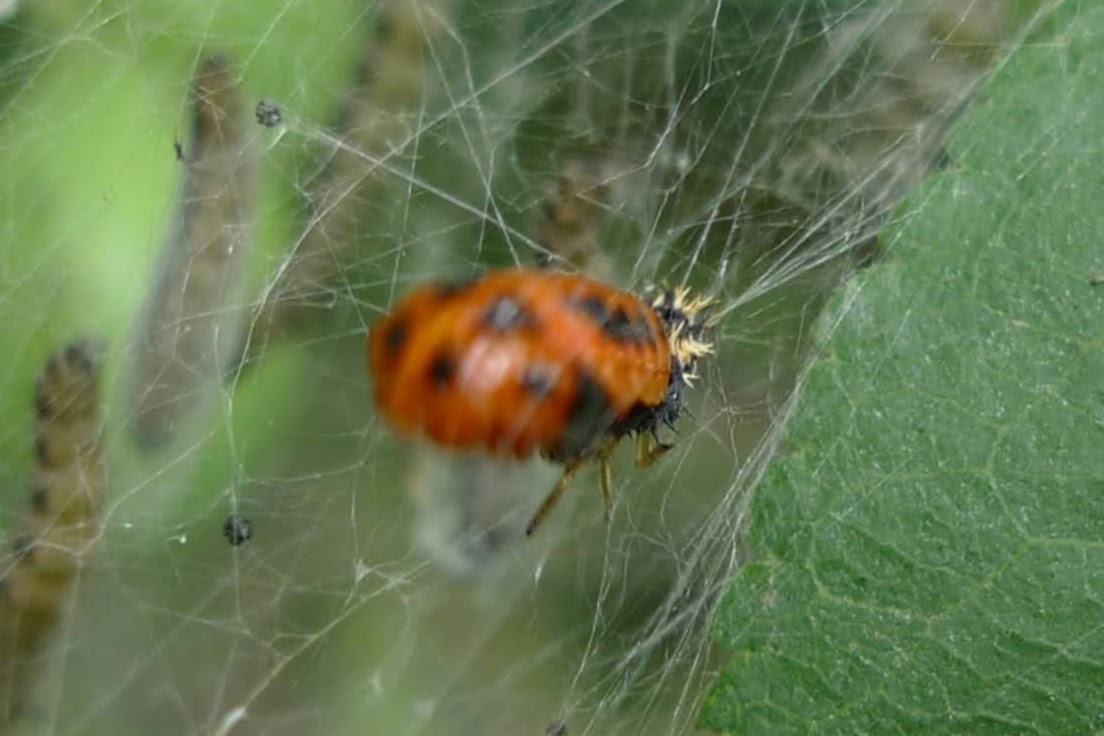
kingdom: Animalia
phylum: Arthropoda
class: Insecta
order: Coleoptera
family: Coccinellidae
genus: Harmonia
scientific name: Harmonia axyridis
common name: Harlequin ladybird
